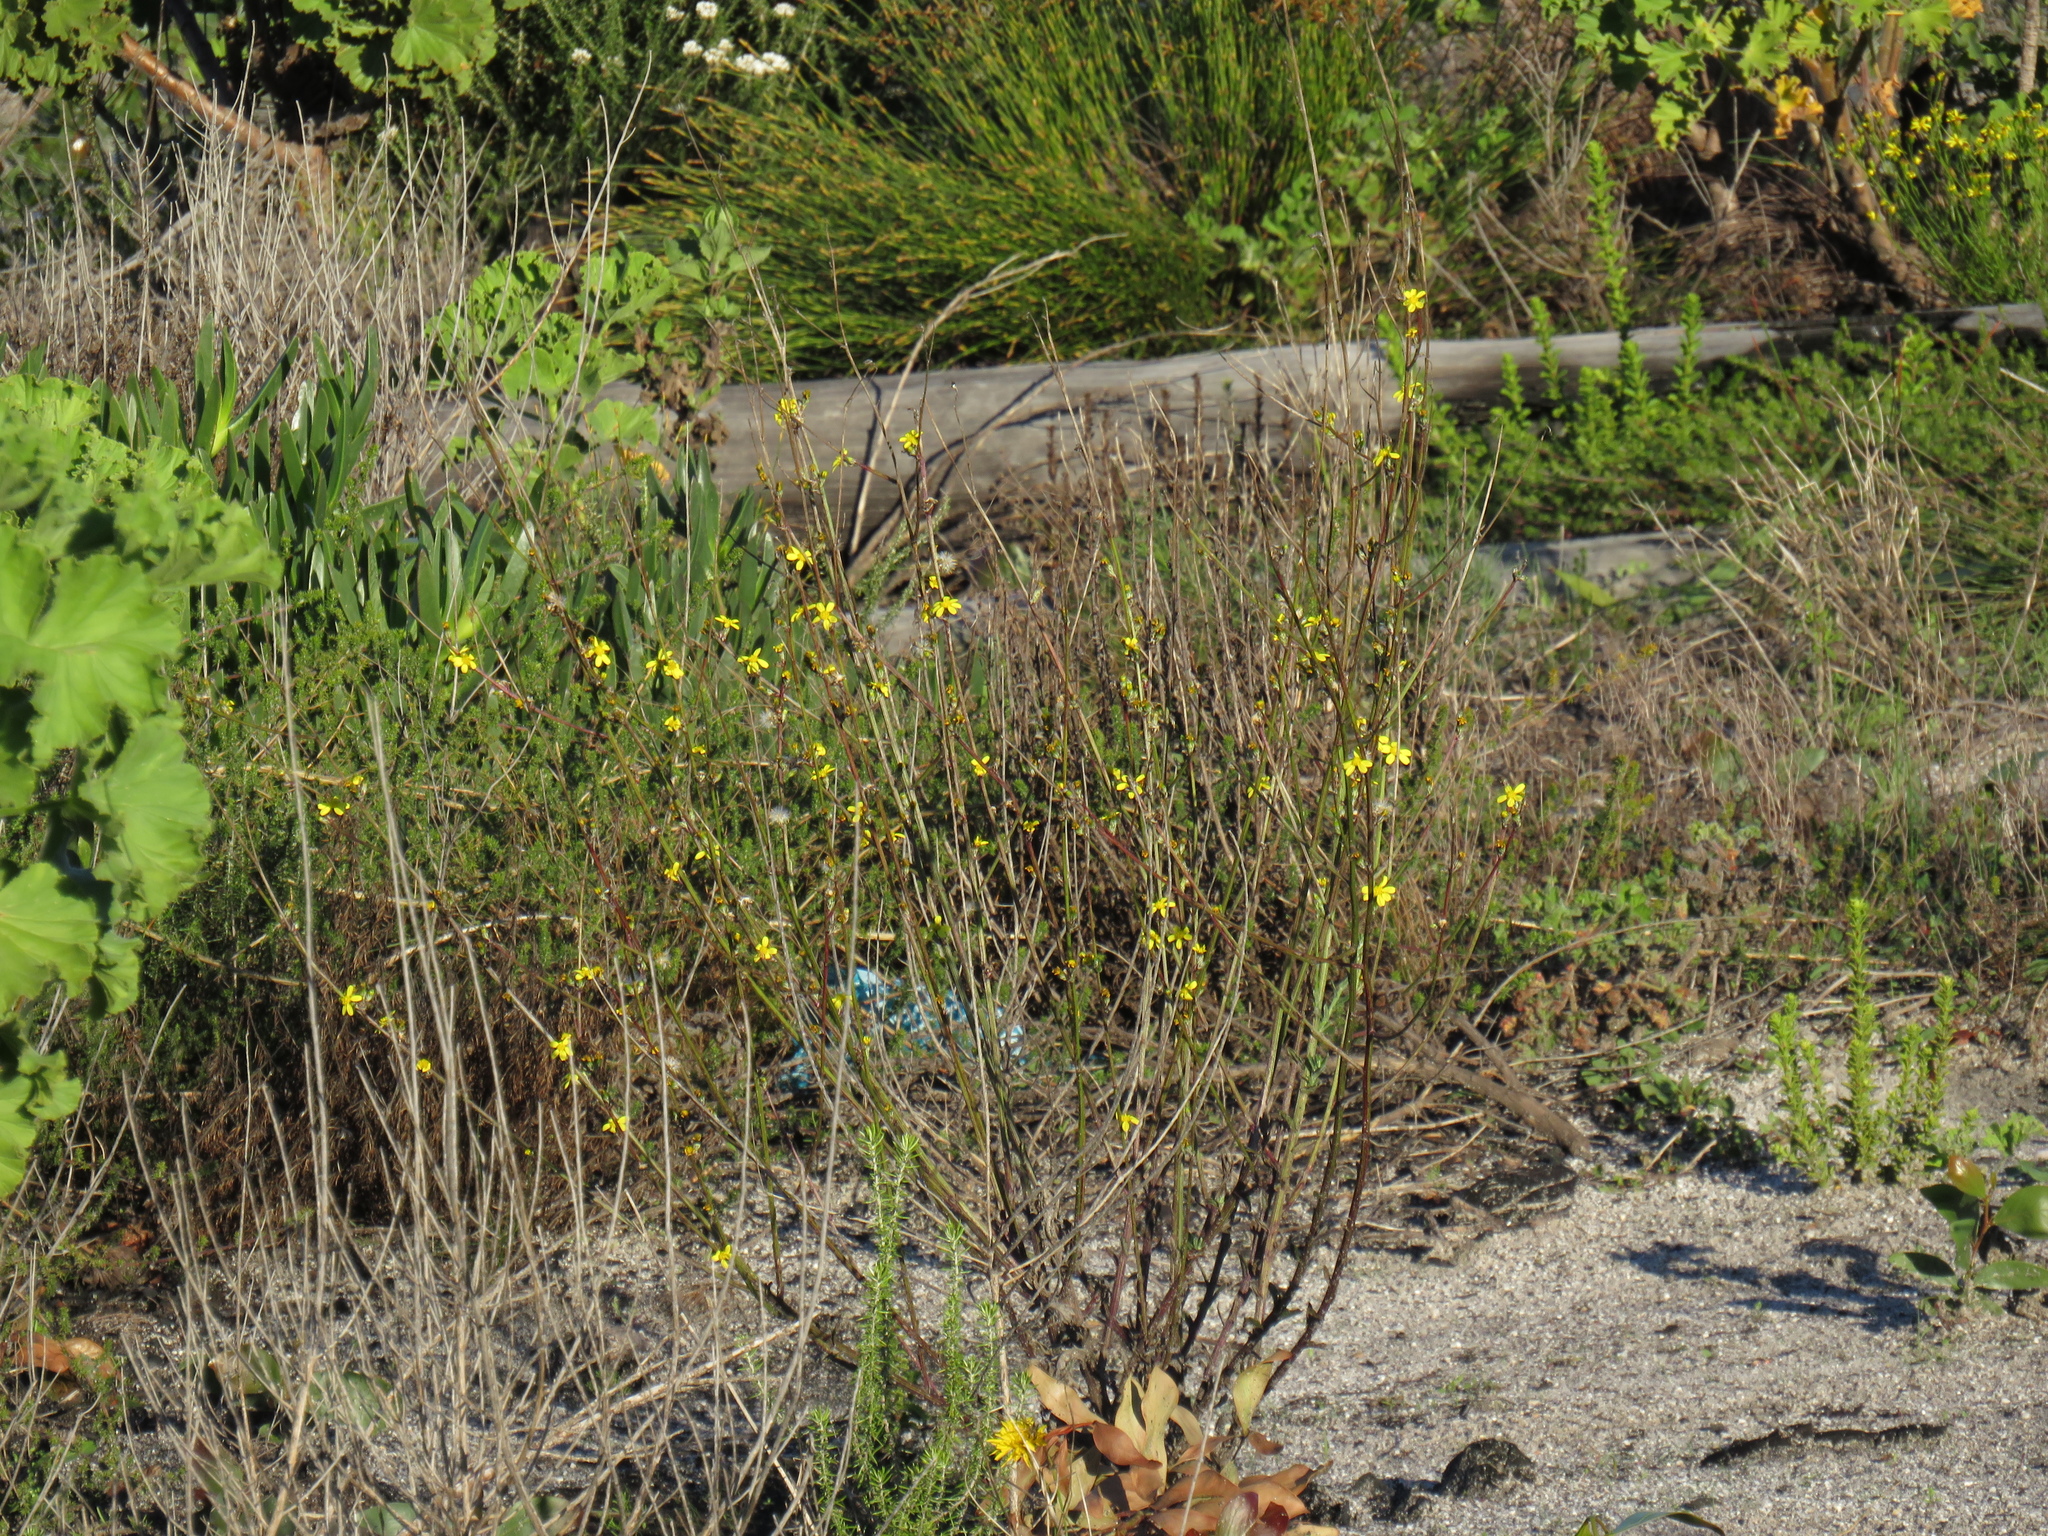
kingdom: Plantae
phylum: Tracheophyta
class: Magnoliopsida
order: Asterales
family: Asteraceae
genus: Senecio
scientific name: Senecio pubigerus
